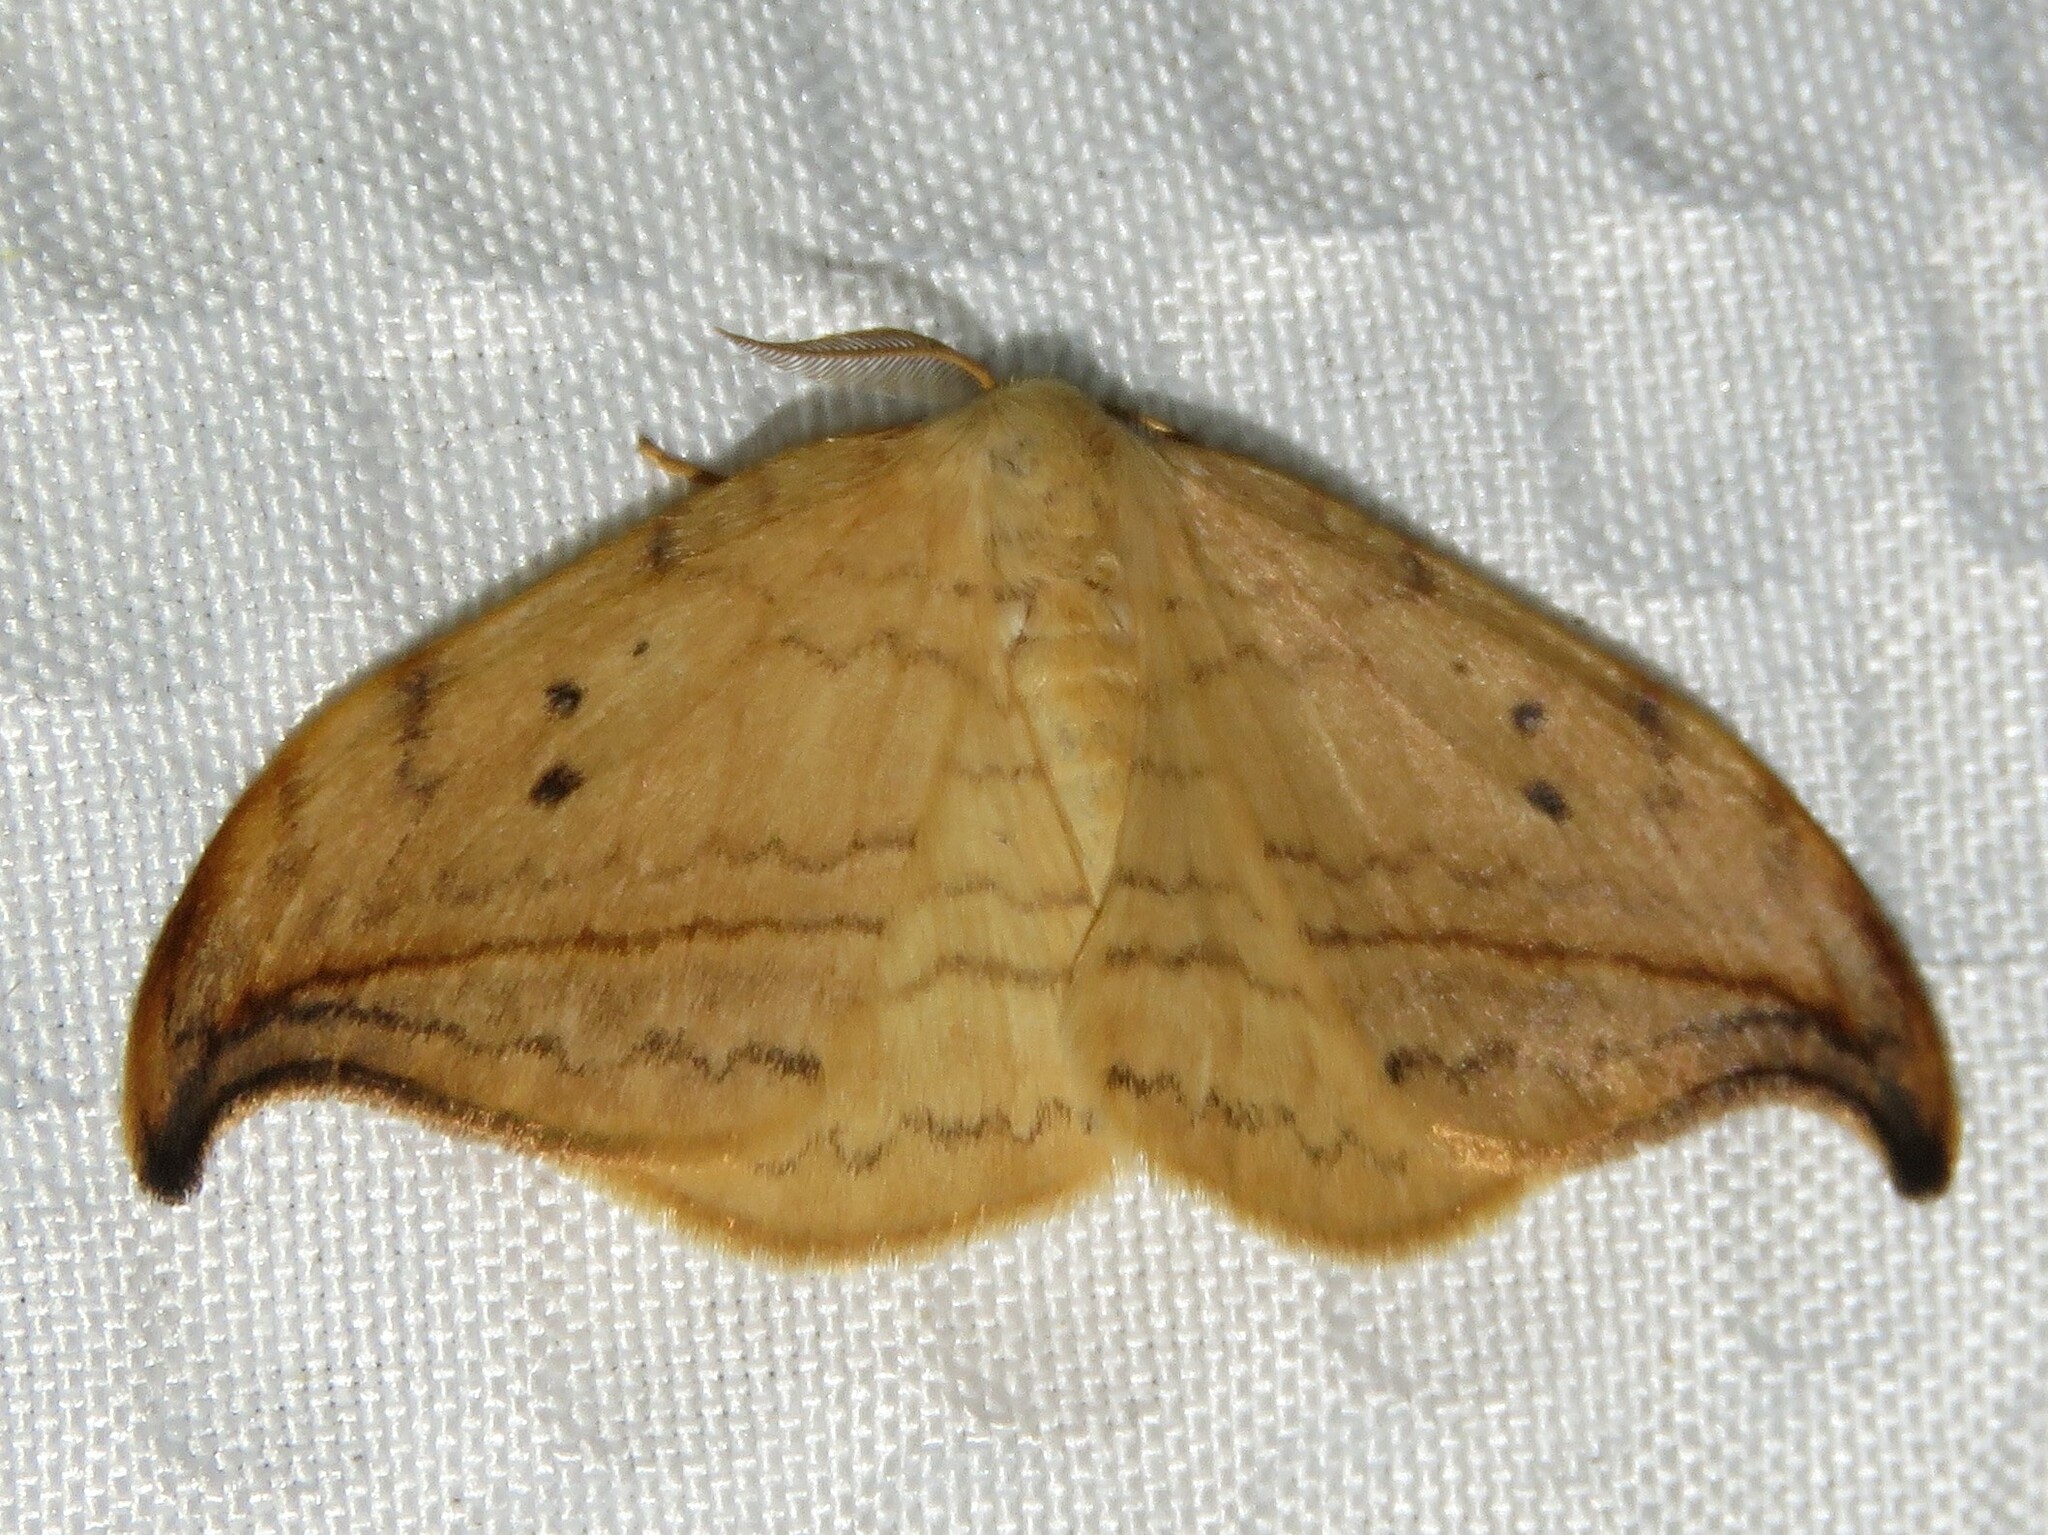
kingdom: Animalia
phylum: Arthropoda
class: Insecta
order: Lepidoptera
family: Drepanidae
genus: Drepana
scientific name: Drepana arcuata
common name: Arched hooktip moth
